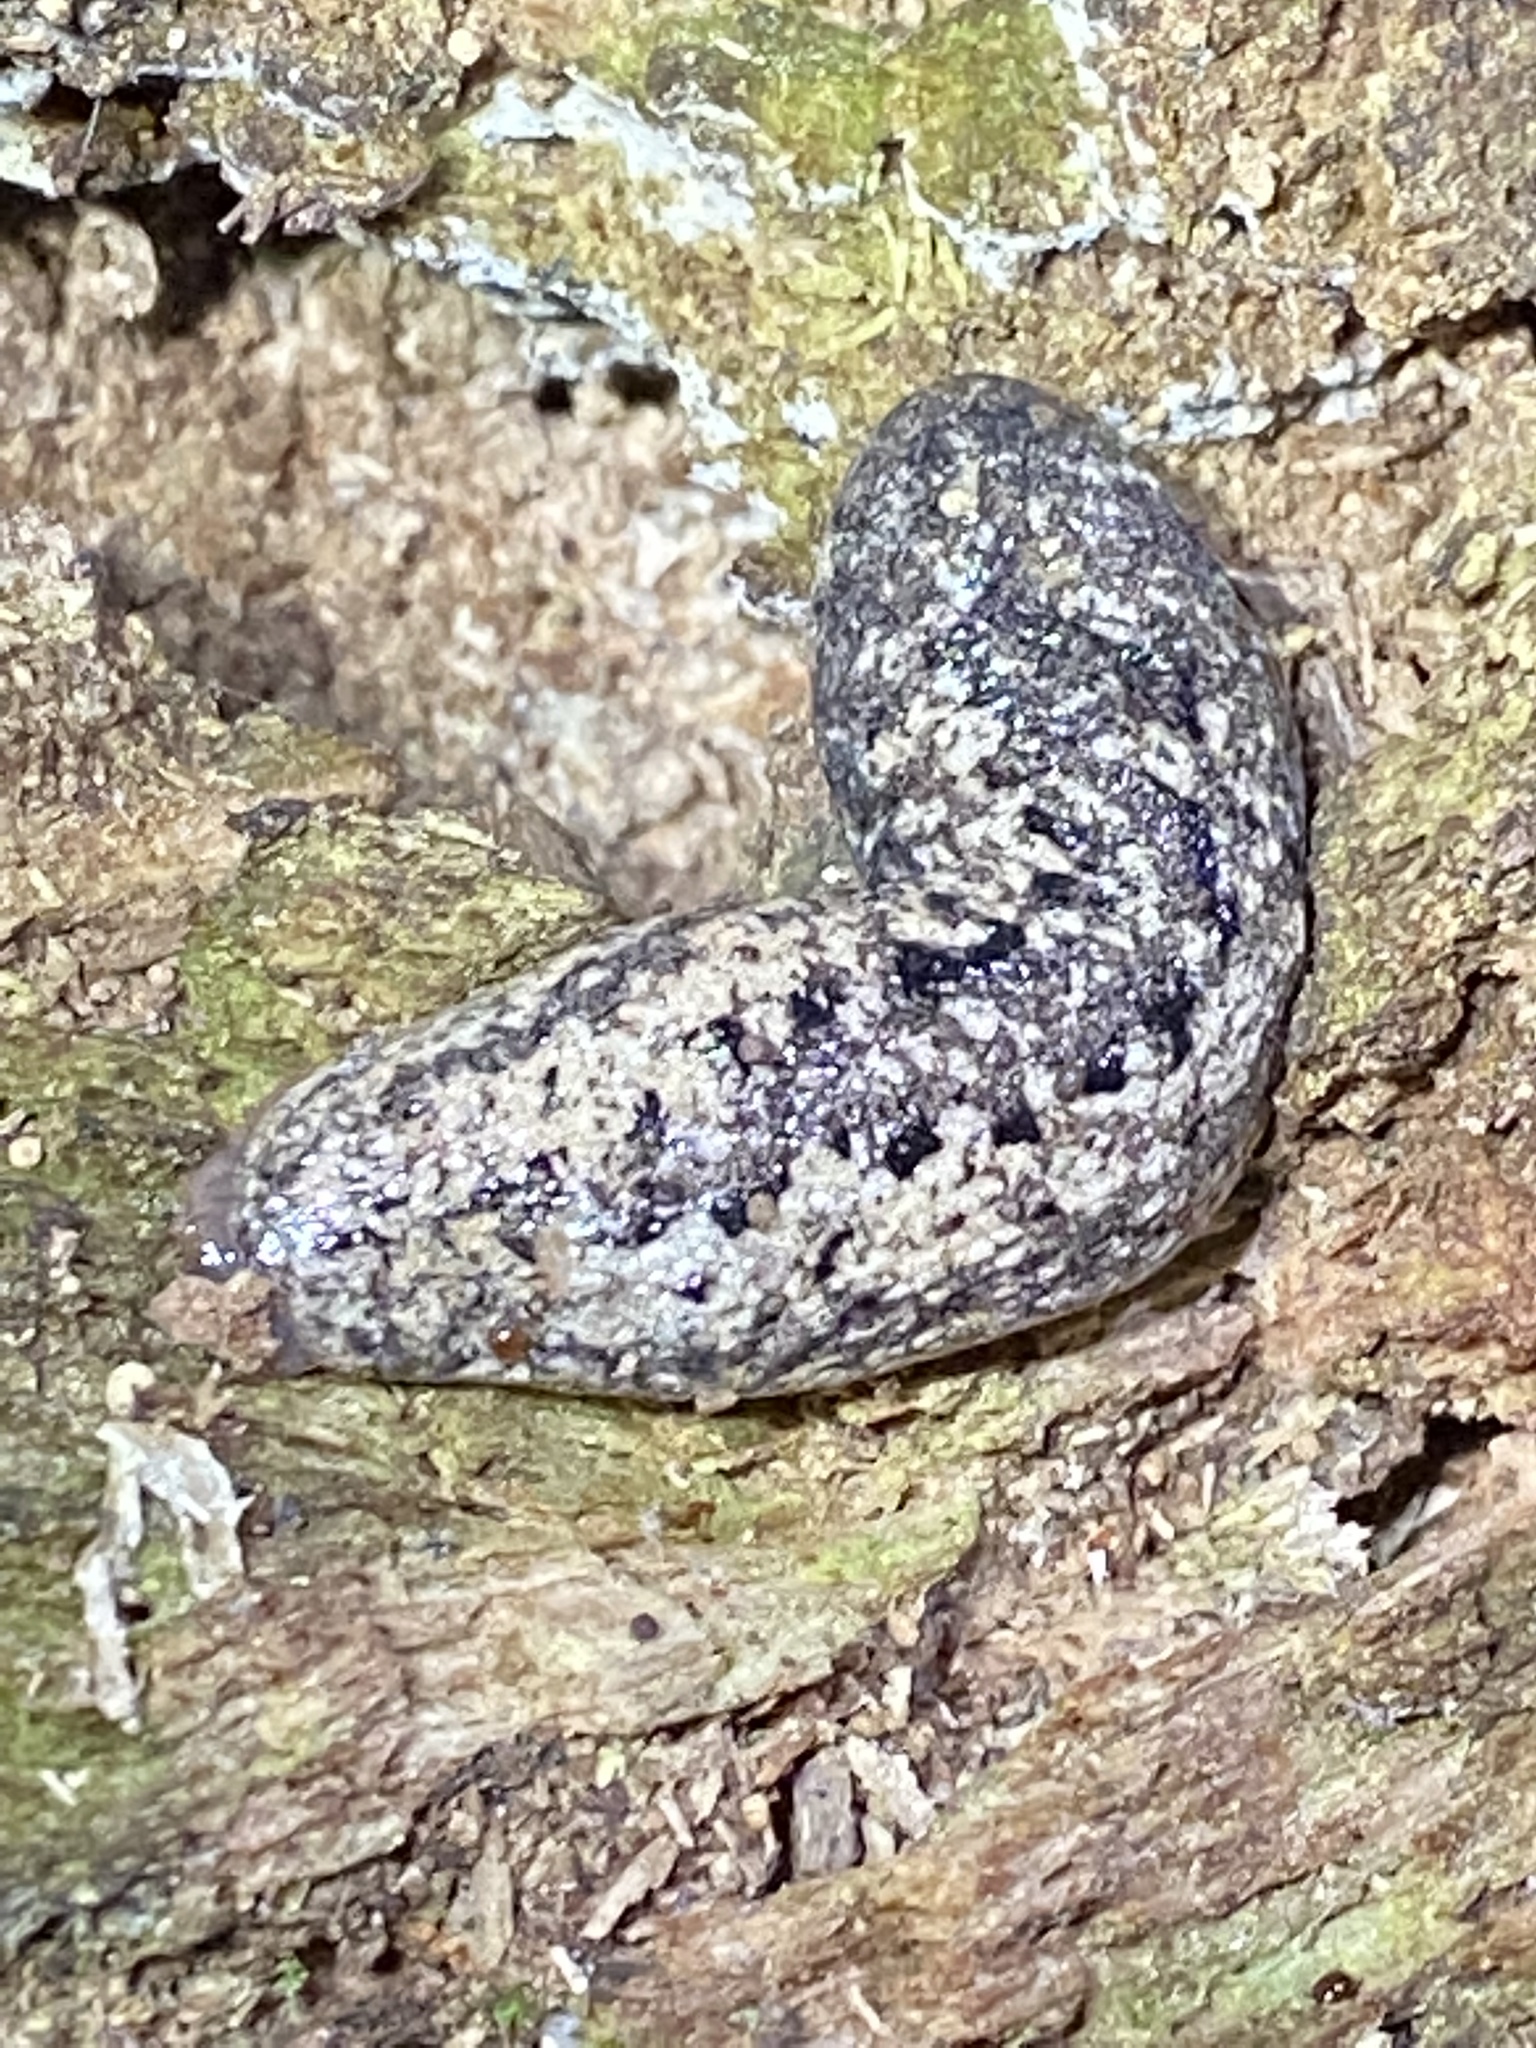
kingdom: Animalia
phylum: Mollusca
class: Gastropoda
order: Stylommatophora
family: Philomycidae
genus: Philomycus
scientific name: Philomycus carolinianus
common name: Carolina mantleslug
